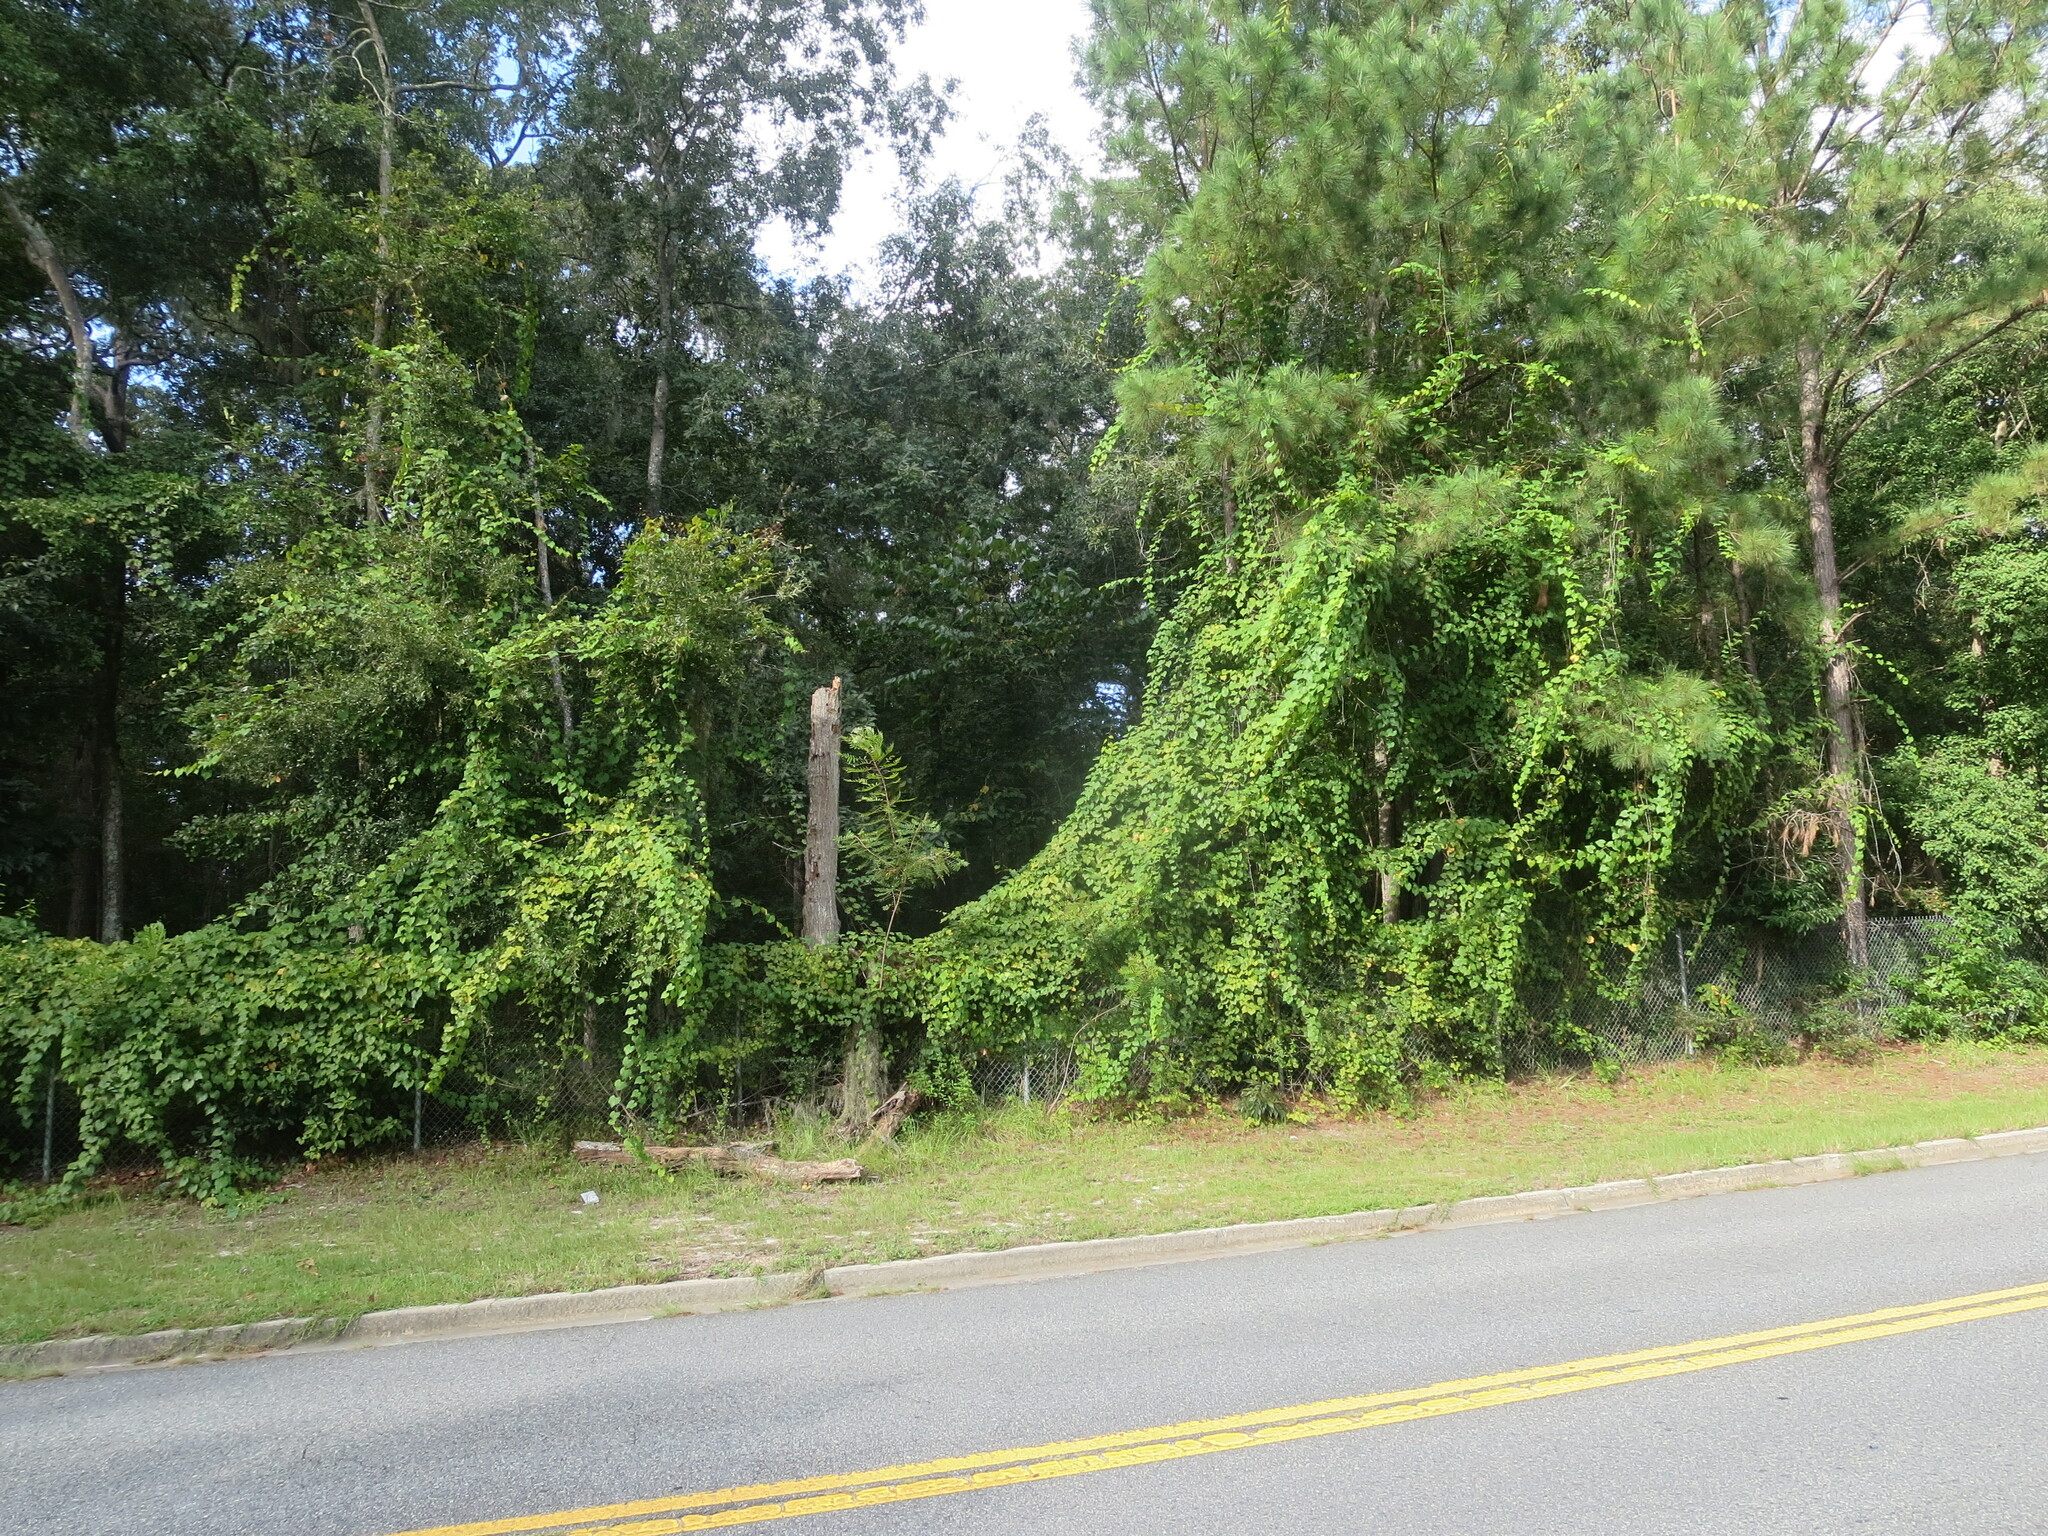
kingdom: Plantae
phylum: Tracheophyta
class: Magnoliopsida
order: Vitales
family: Vitaceae
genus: Vitis
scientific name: Vitis rotundifolia
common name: Muscadine grape
